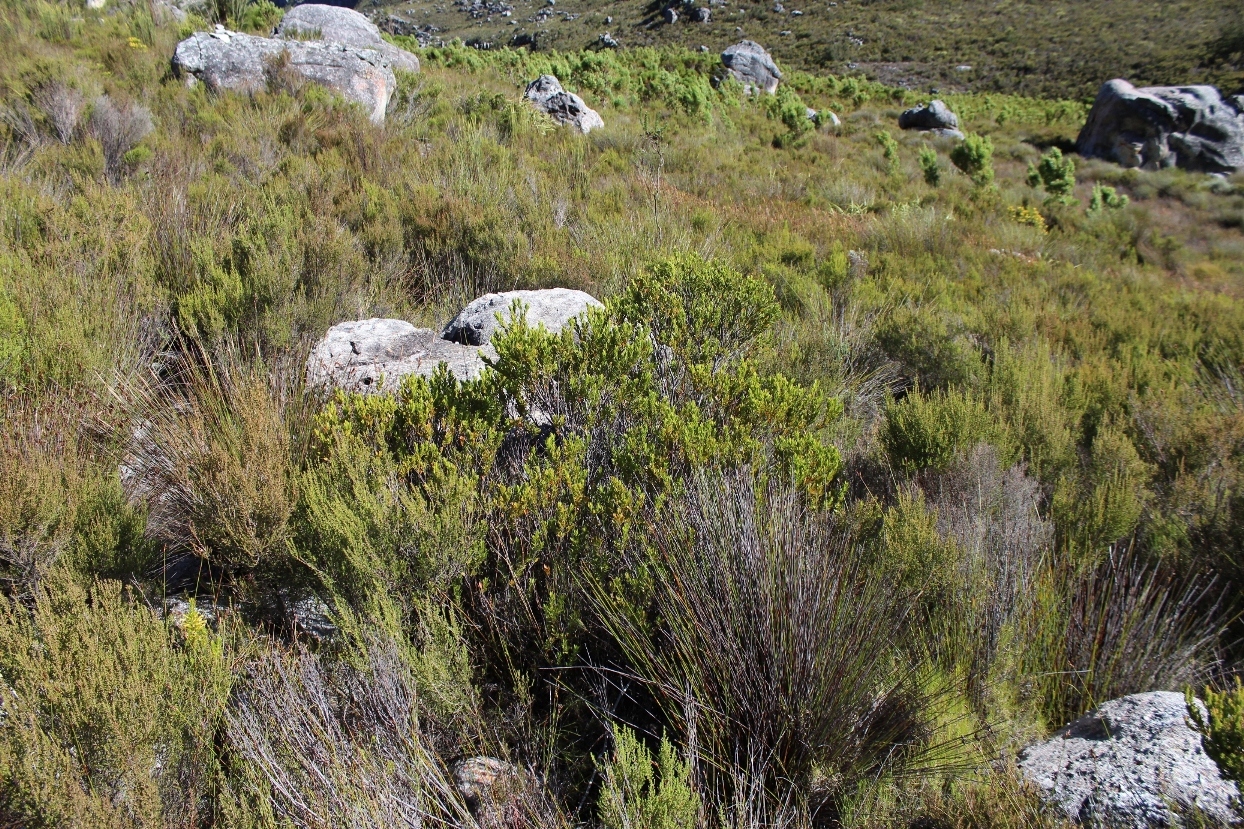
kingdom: Plantae
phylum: Tracheophyta
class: Magnoliopsida
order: Ericales
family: Ebenaceae
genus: Diospyros
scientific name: Diospyros glabra
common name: Fynbos star apple
